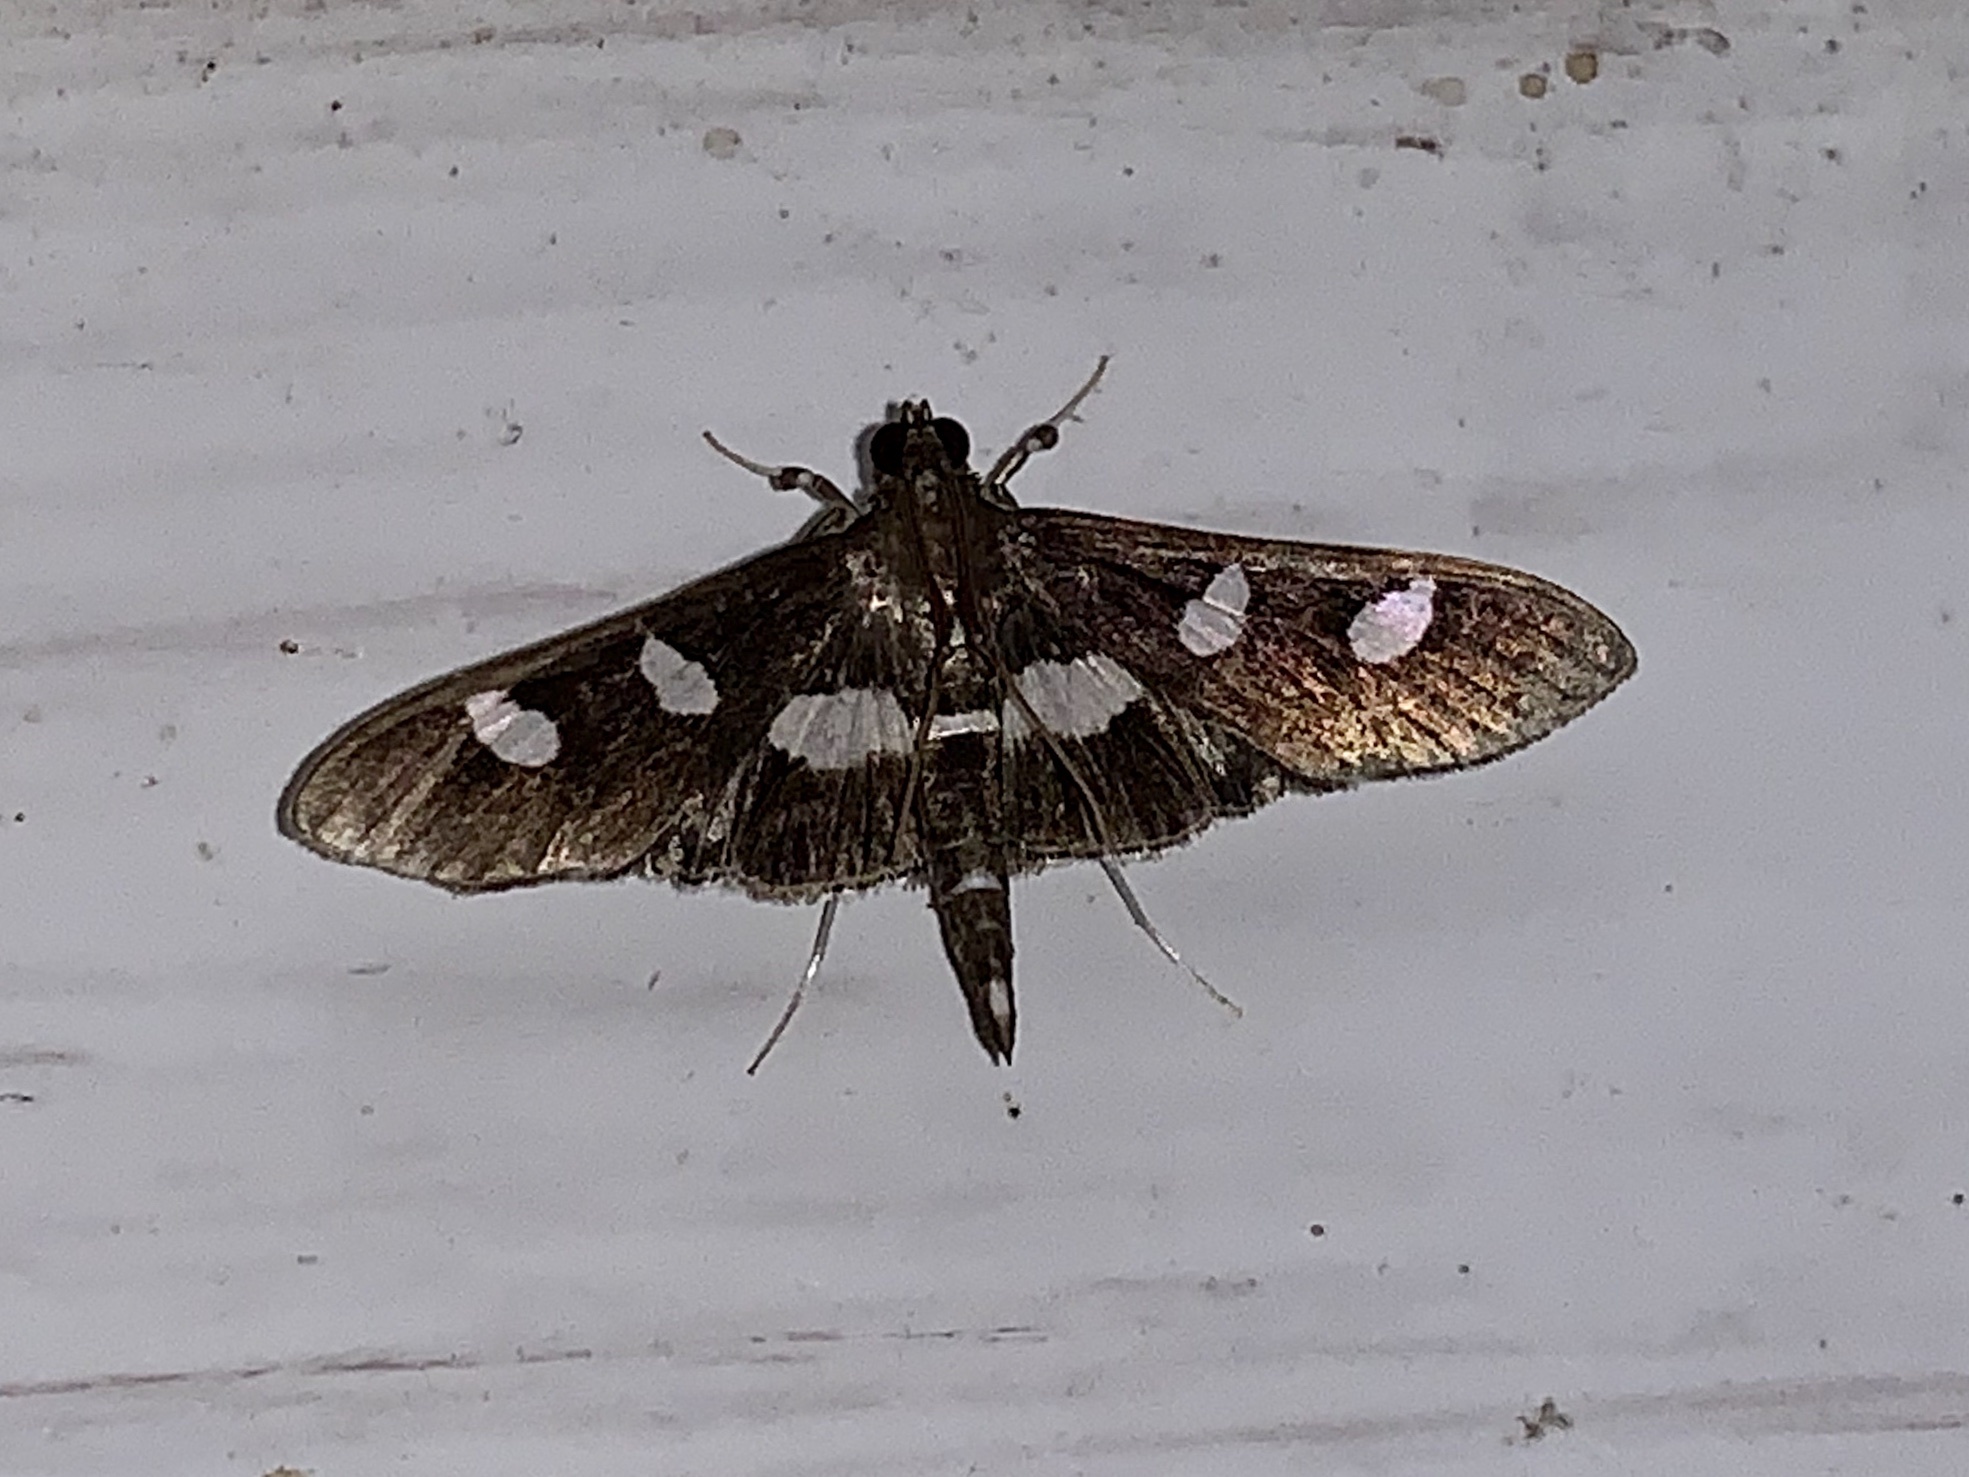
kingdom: Animalia
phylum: Arthropoda
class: Insecta
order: Lepidoptera
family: Crambidae
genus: Desmia
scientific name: Desmia
